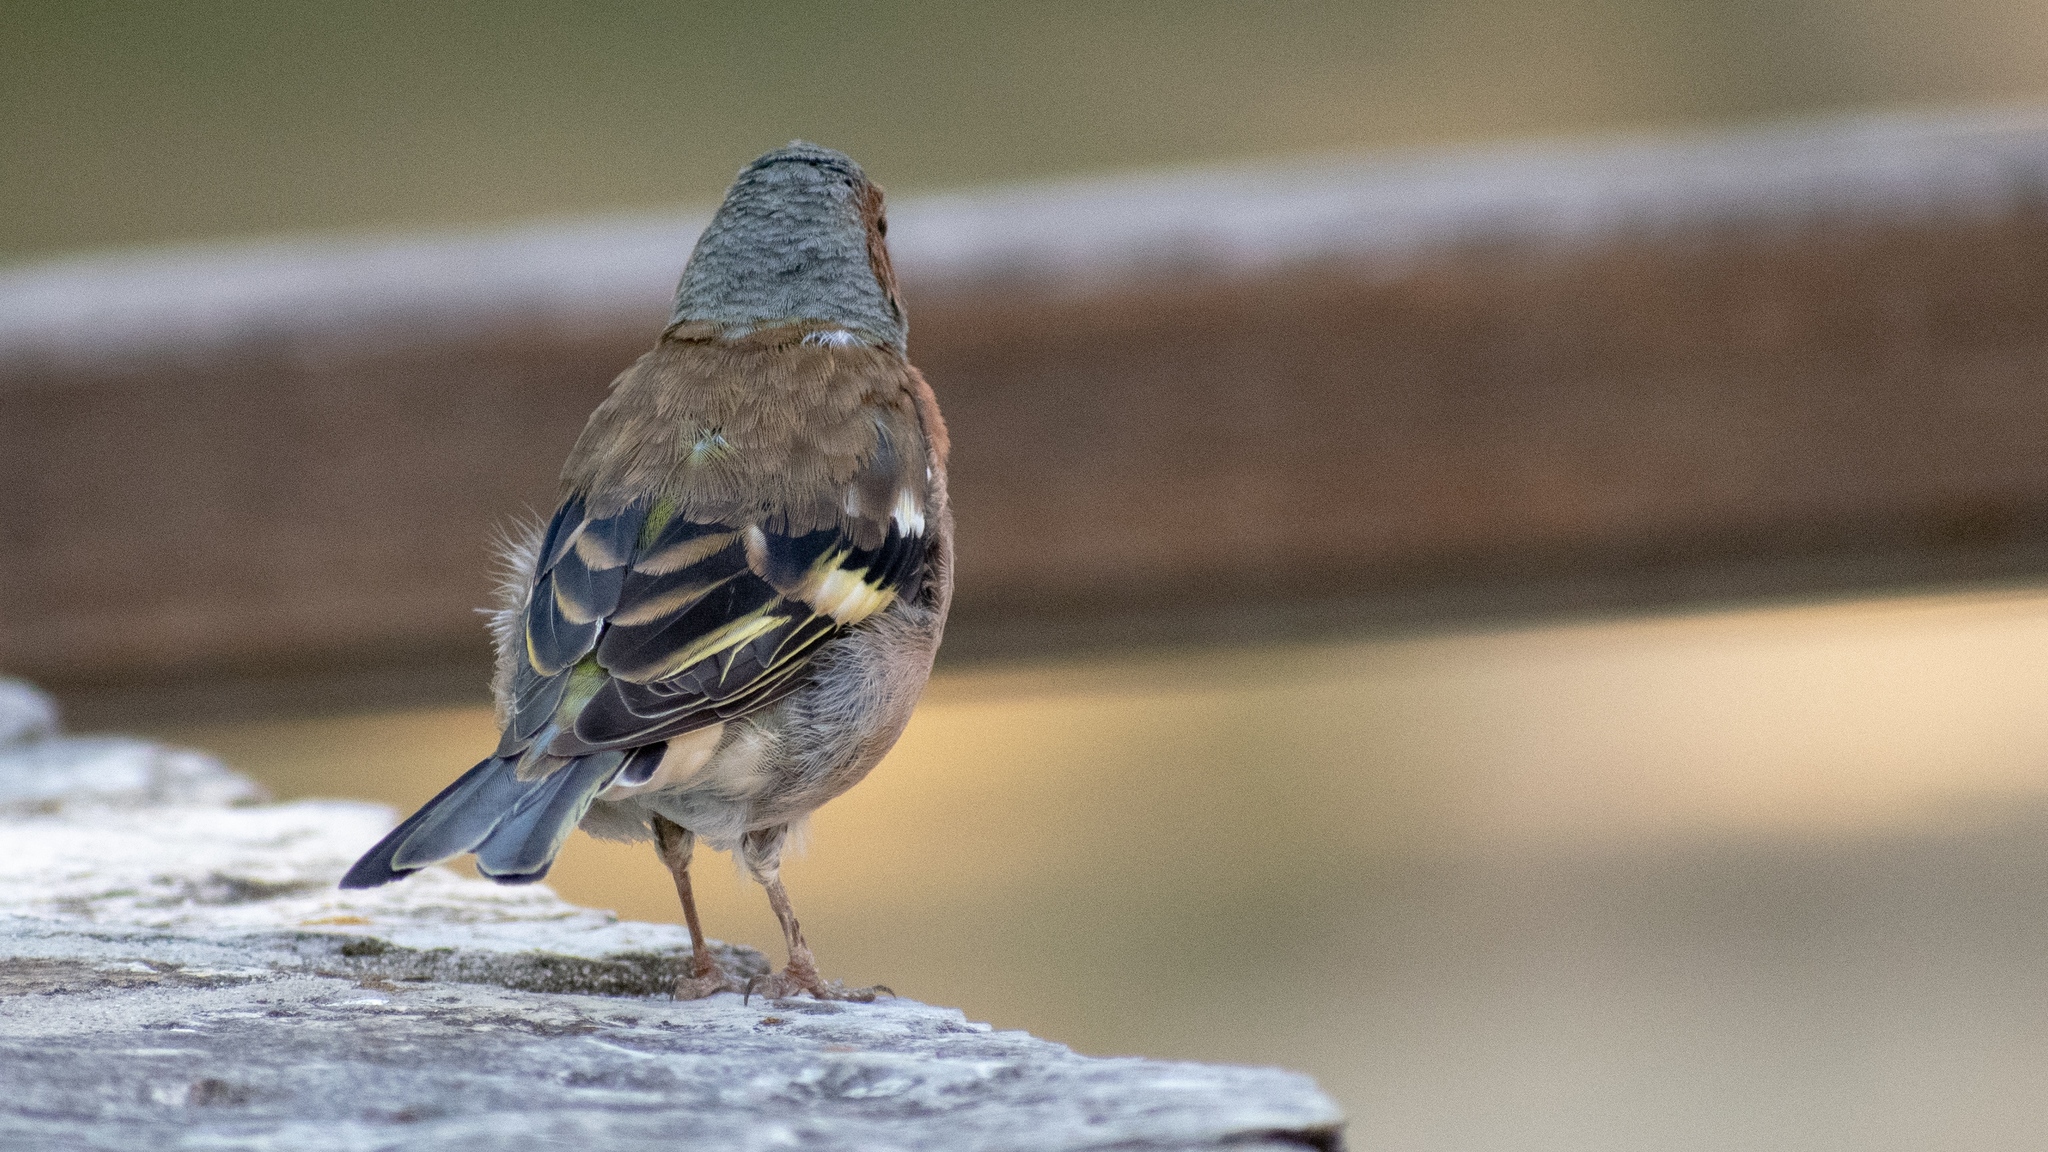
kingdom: Animalia
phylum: Chordata
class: Aves
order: Passeriformes
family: Fringillidae
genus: Fringilla
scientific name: Fringilla coelebs
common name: Common chaffinch
